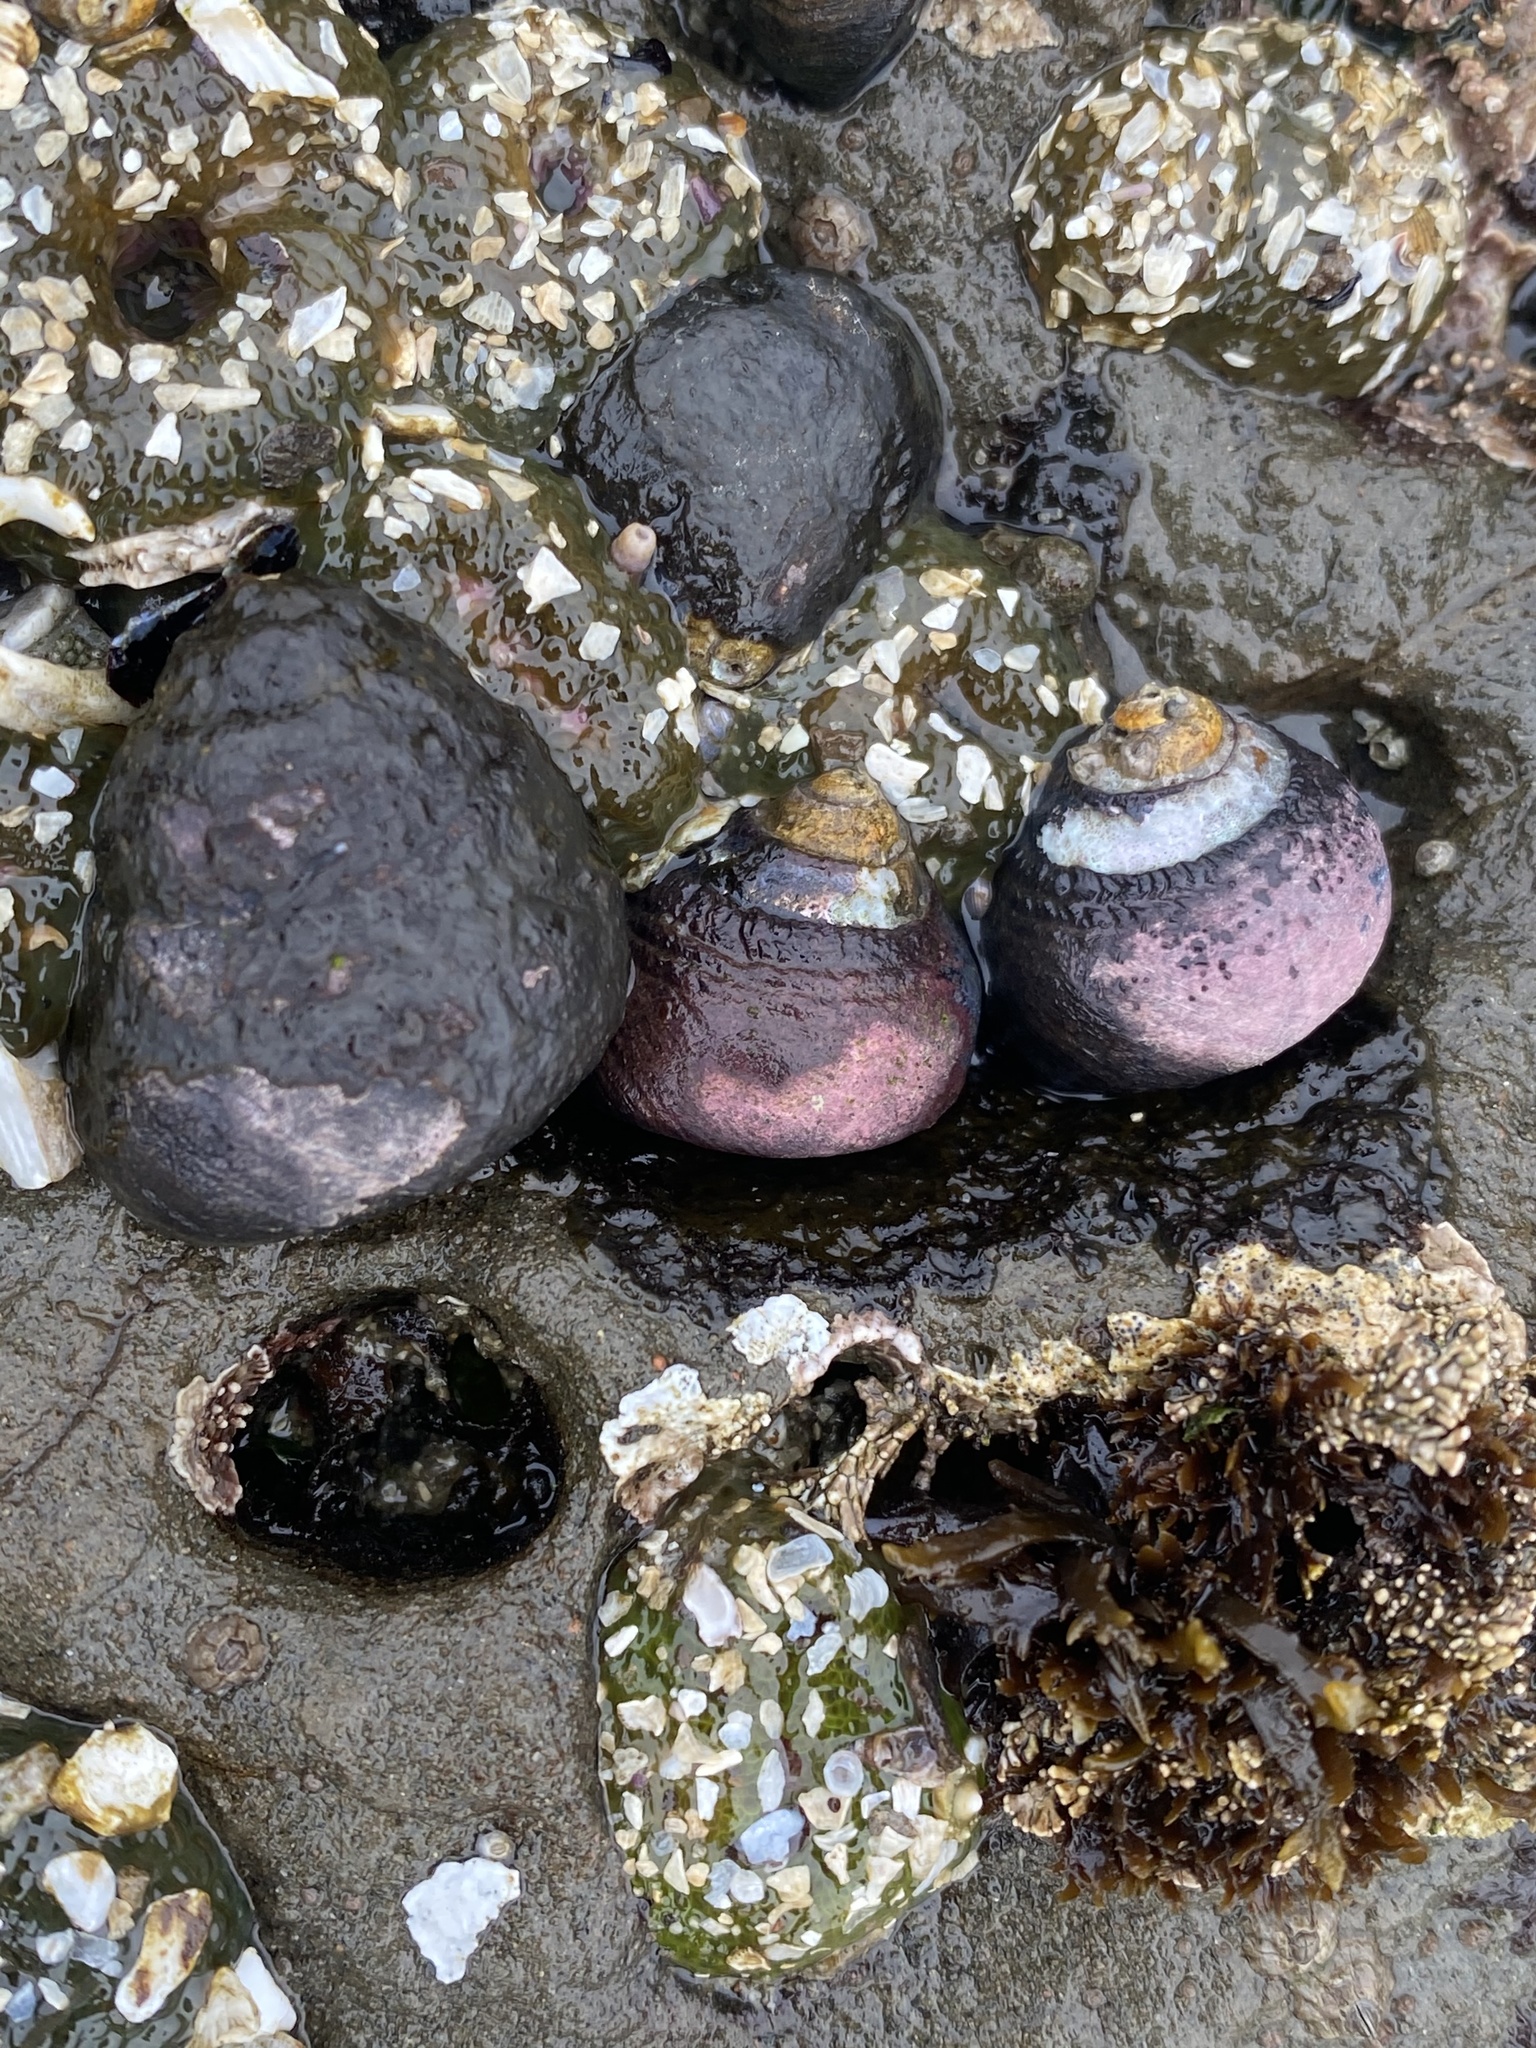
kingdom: Animalia
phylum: Mollusca
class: Gastropoda
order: Trochida
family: Tegulidae
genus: Tegula
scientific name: Tegula funebralis
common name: Black tegula
